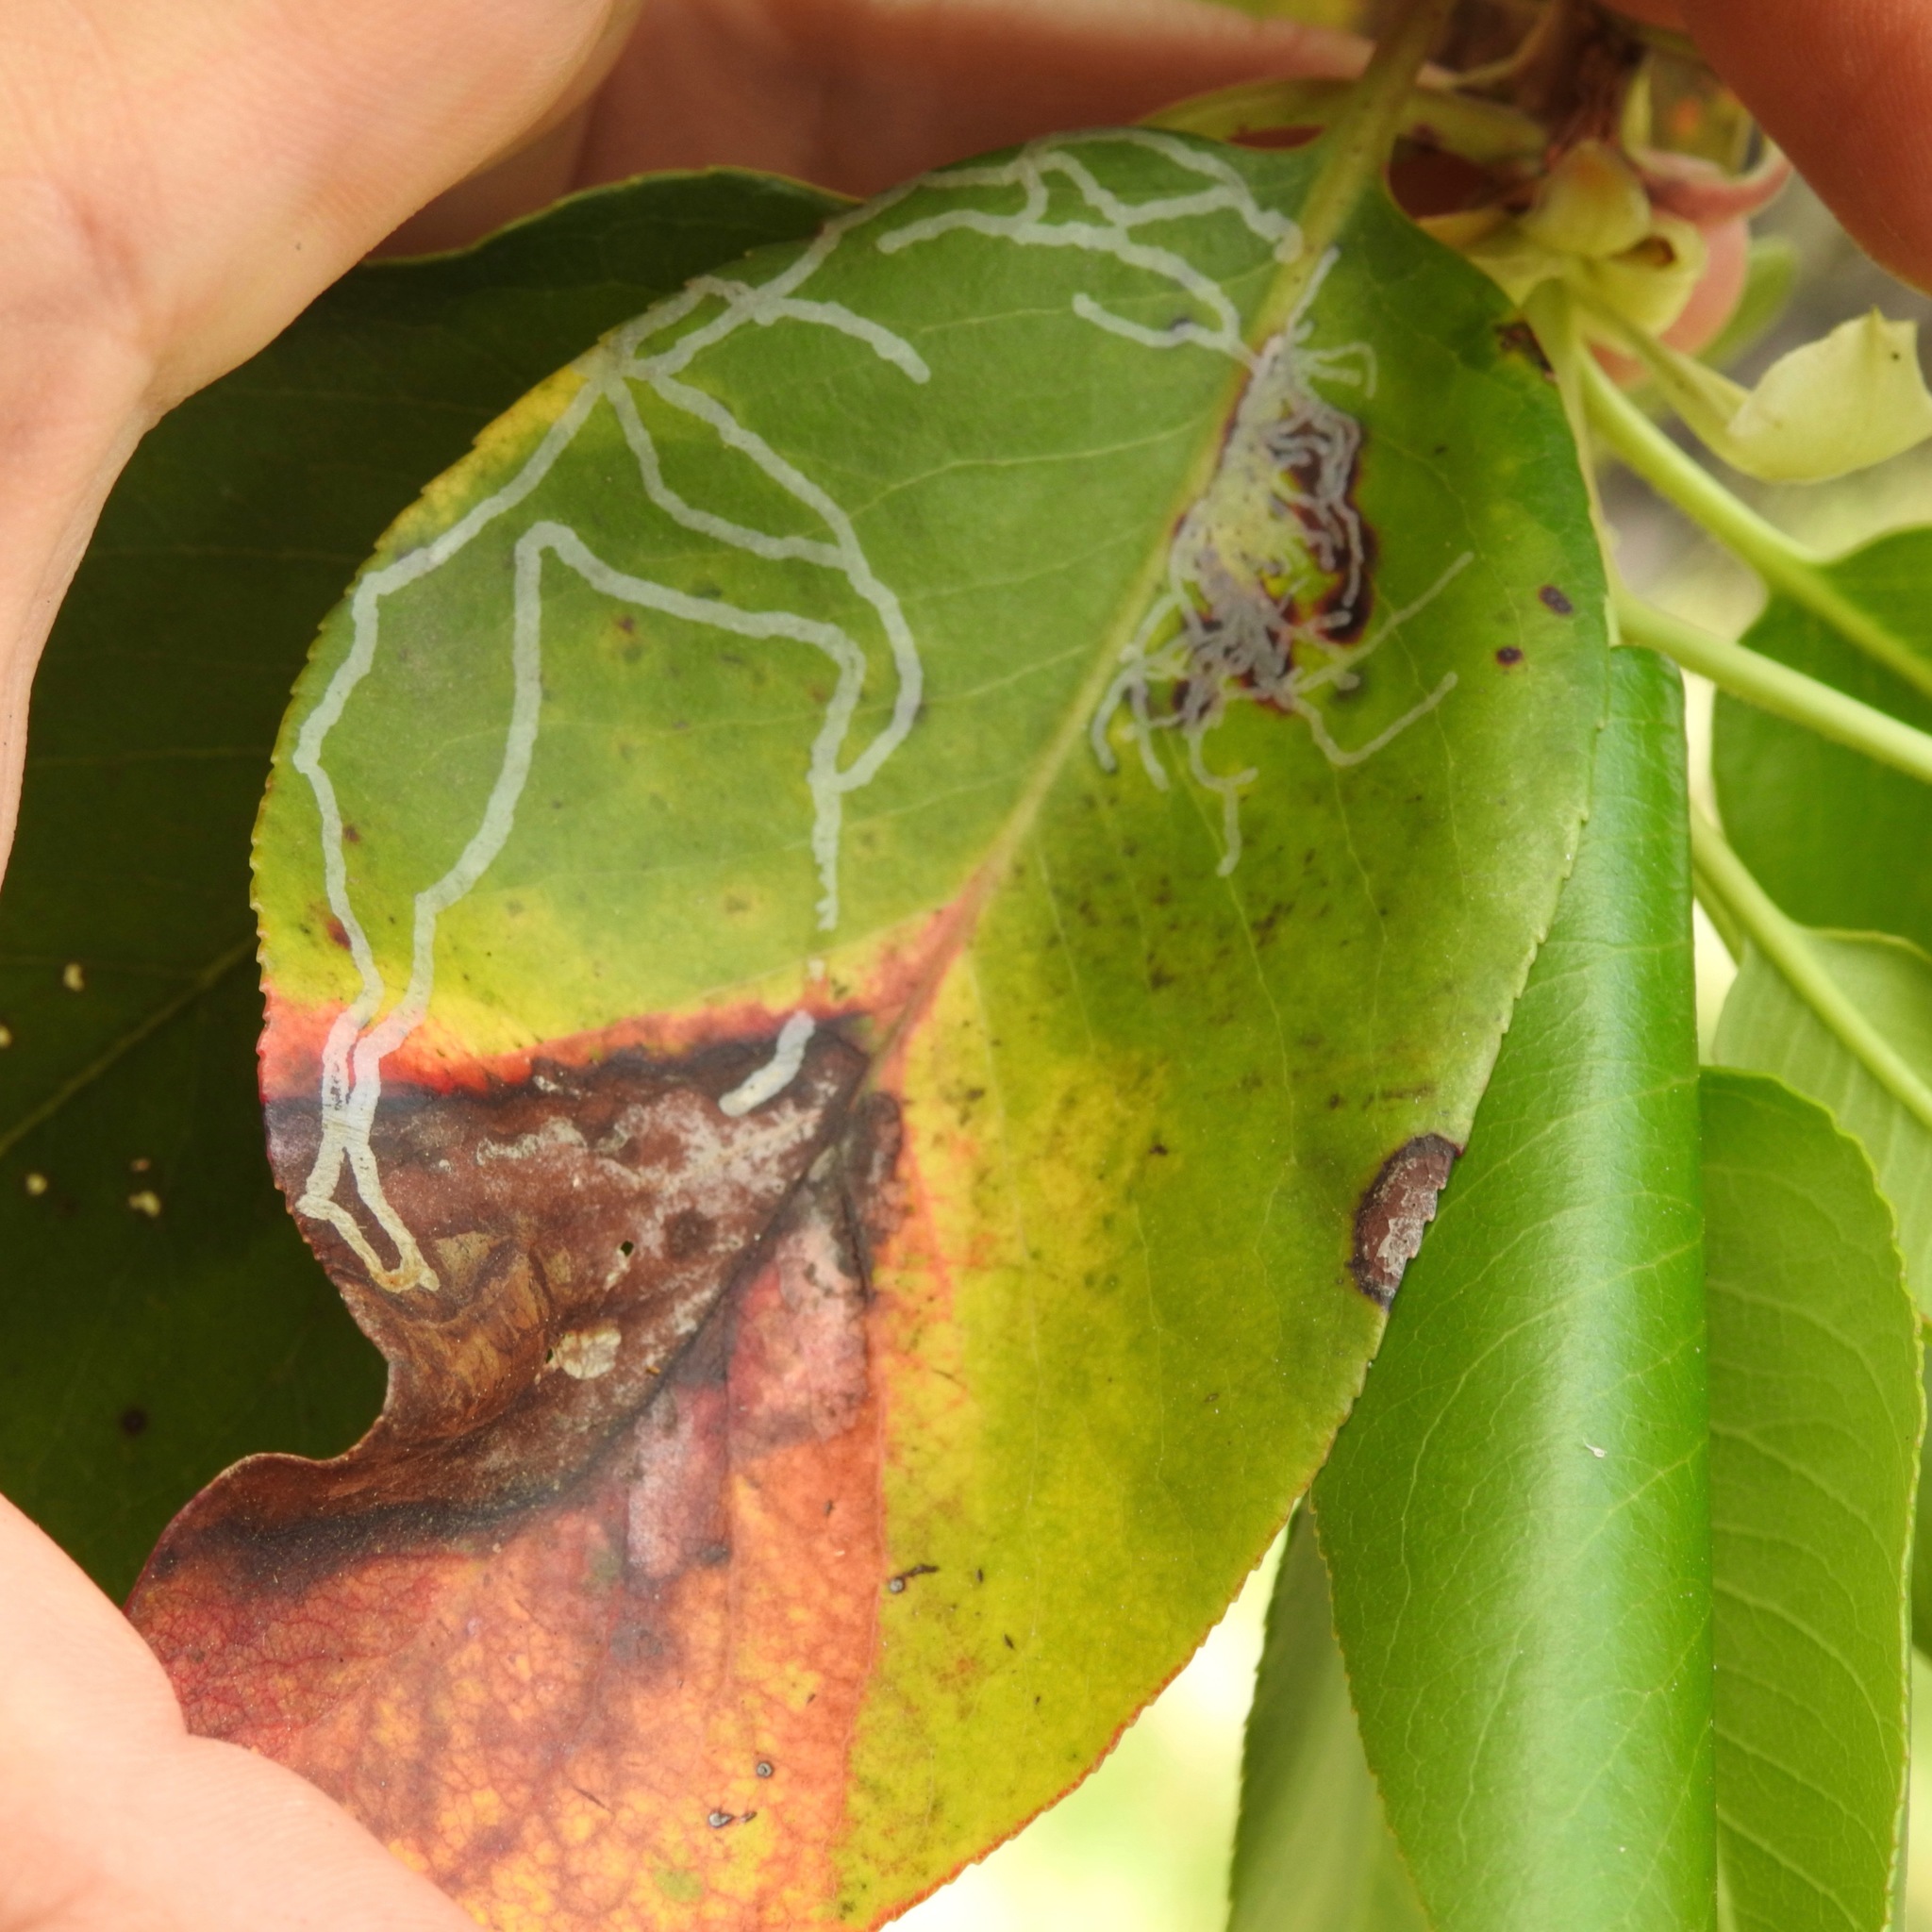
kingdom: Animalia
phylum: Arthropoda
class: Insecta
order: Lepidoptera
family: Gracillariidae
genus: Marmara
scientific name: Marmara arbutiella
